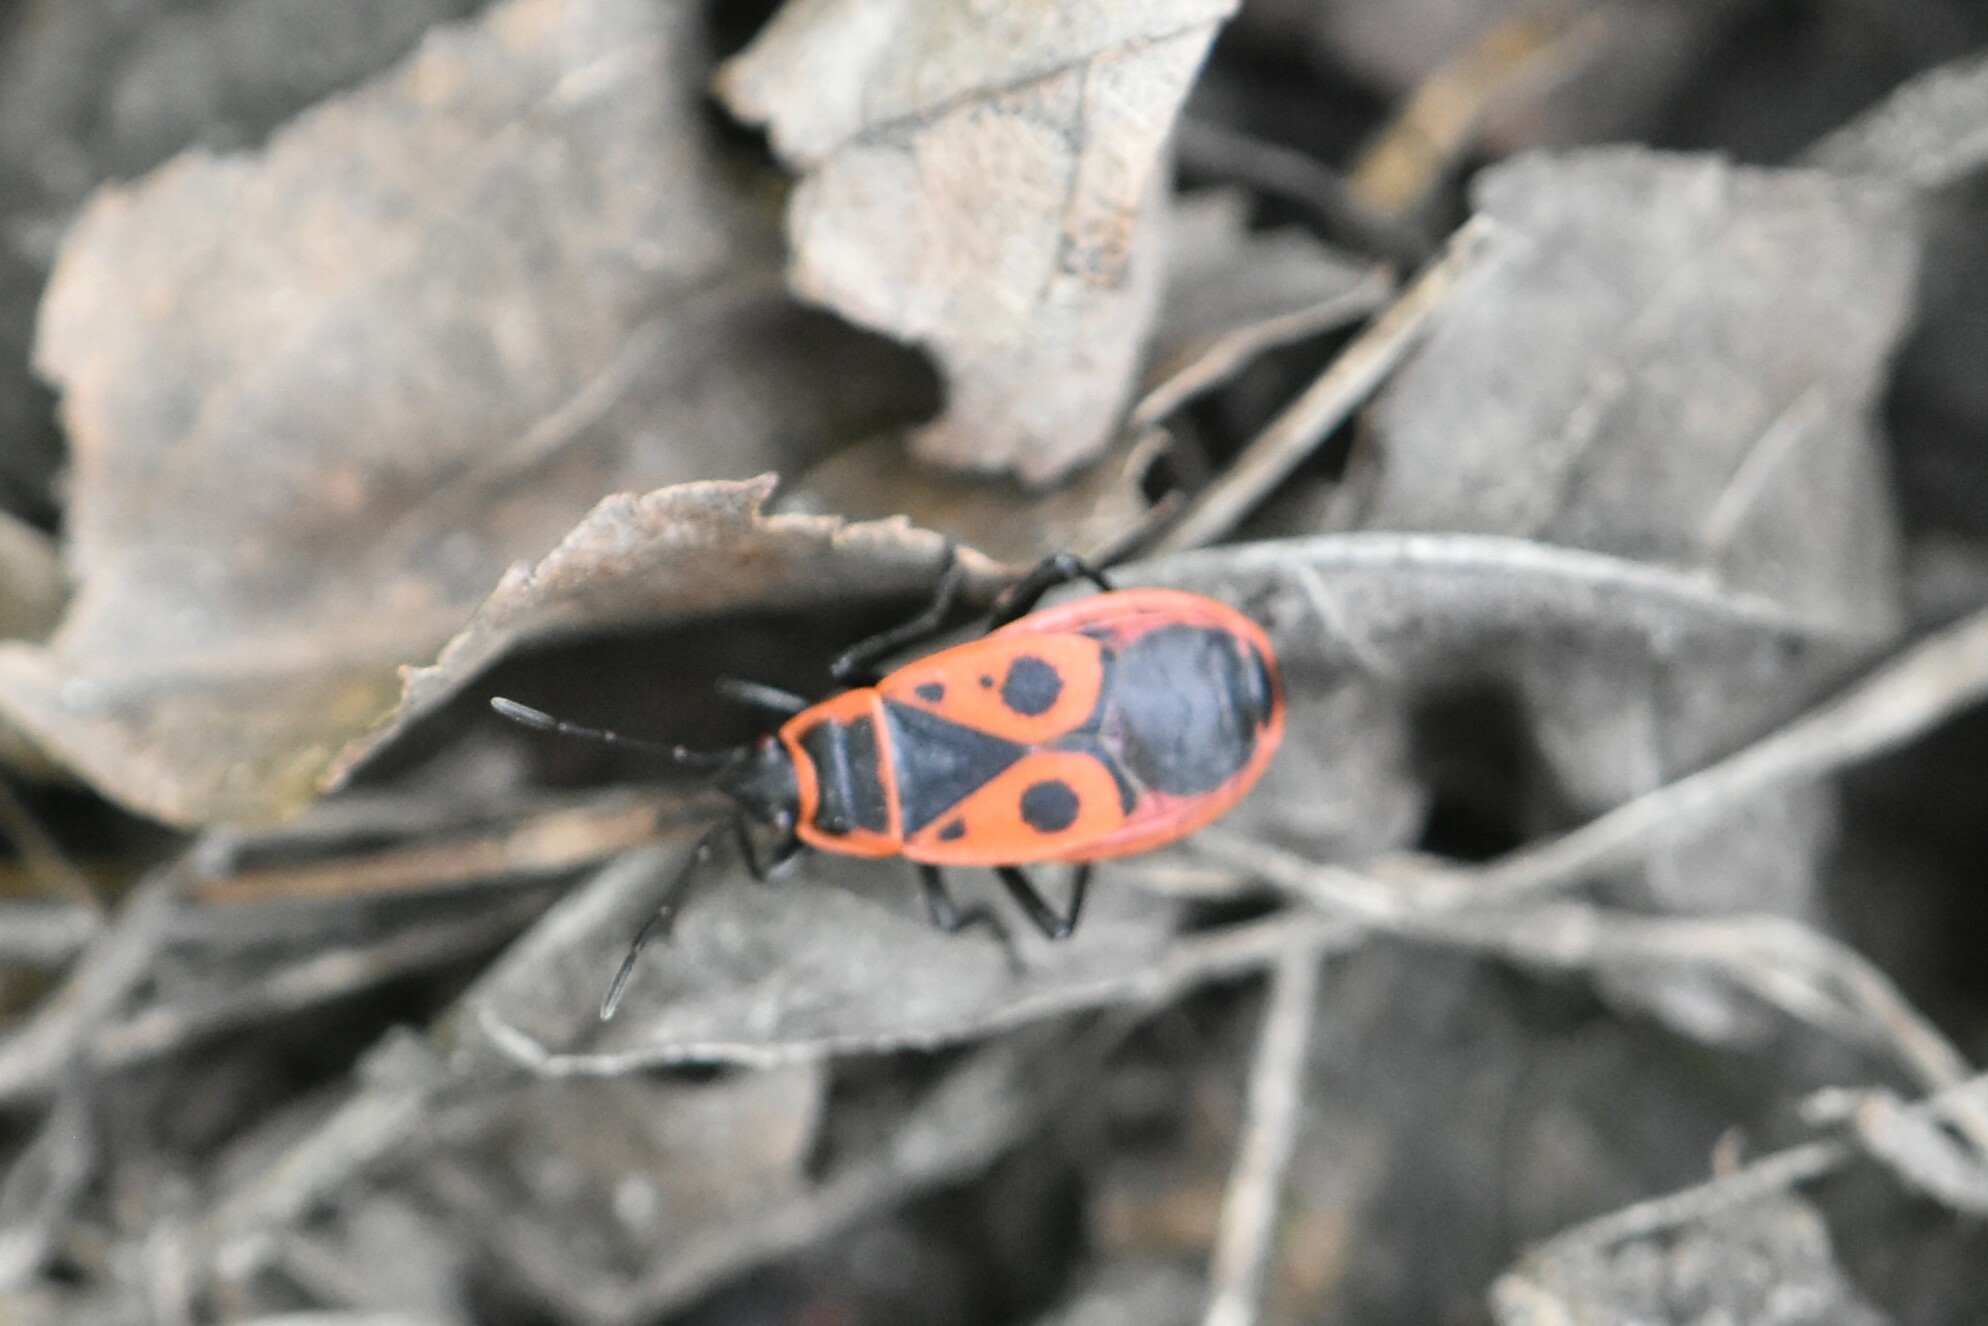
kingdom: Animalia
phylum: Arthropoda
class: Insecta
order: Hemiptera
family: Pyrrhocoridae
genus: Pyrrhocoris
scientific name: Pyrrhocoris apterus
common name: Firebug
